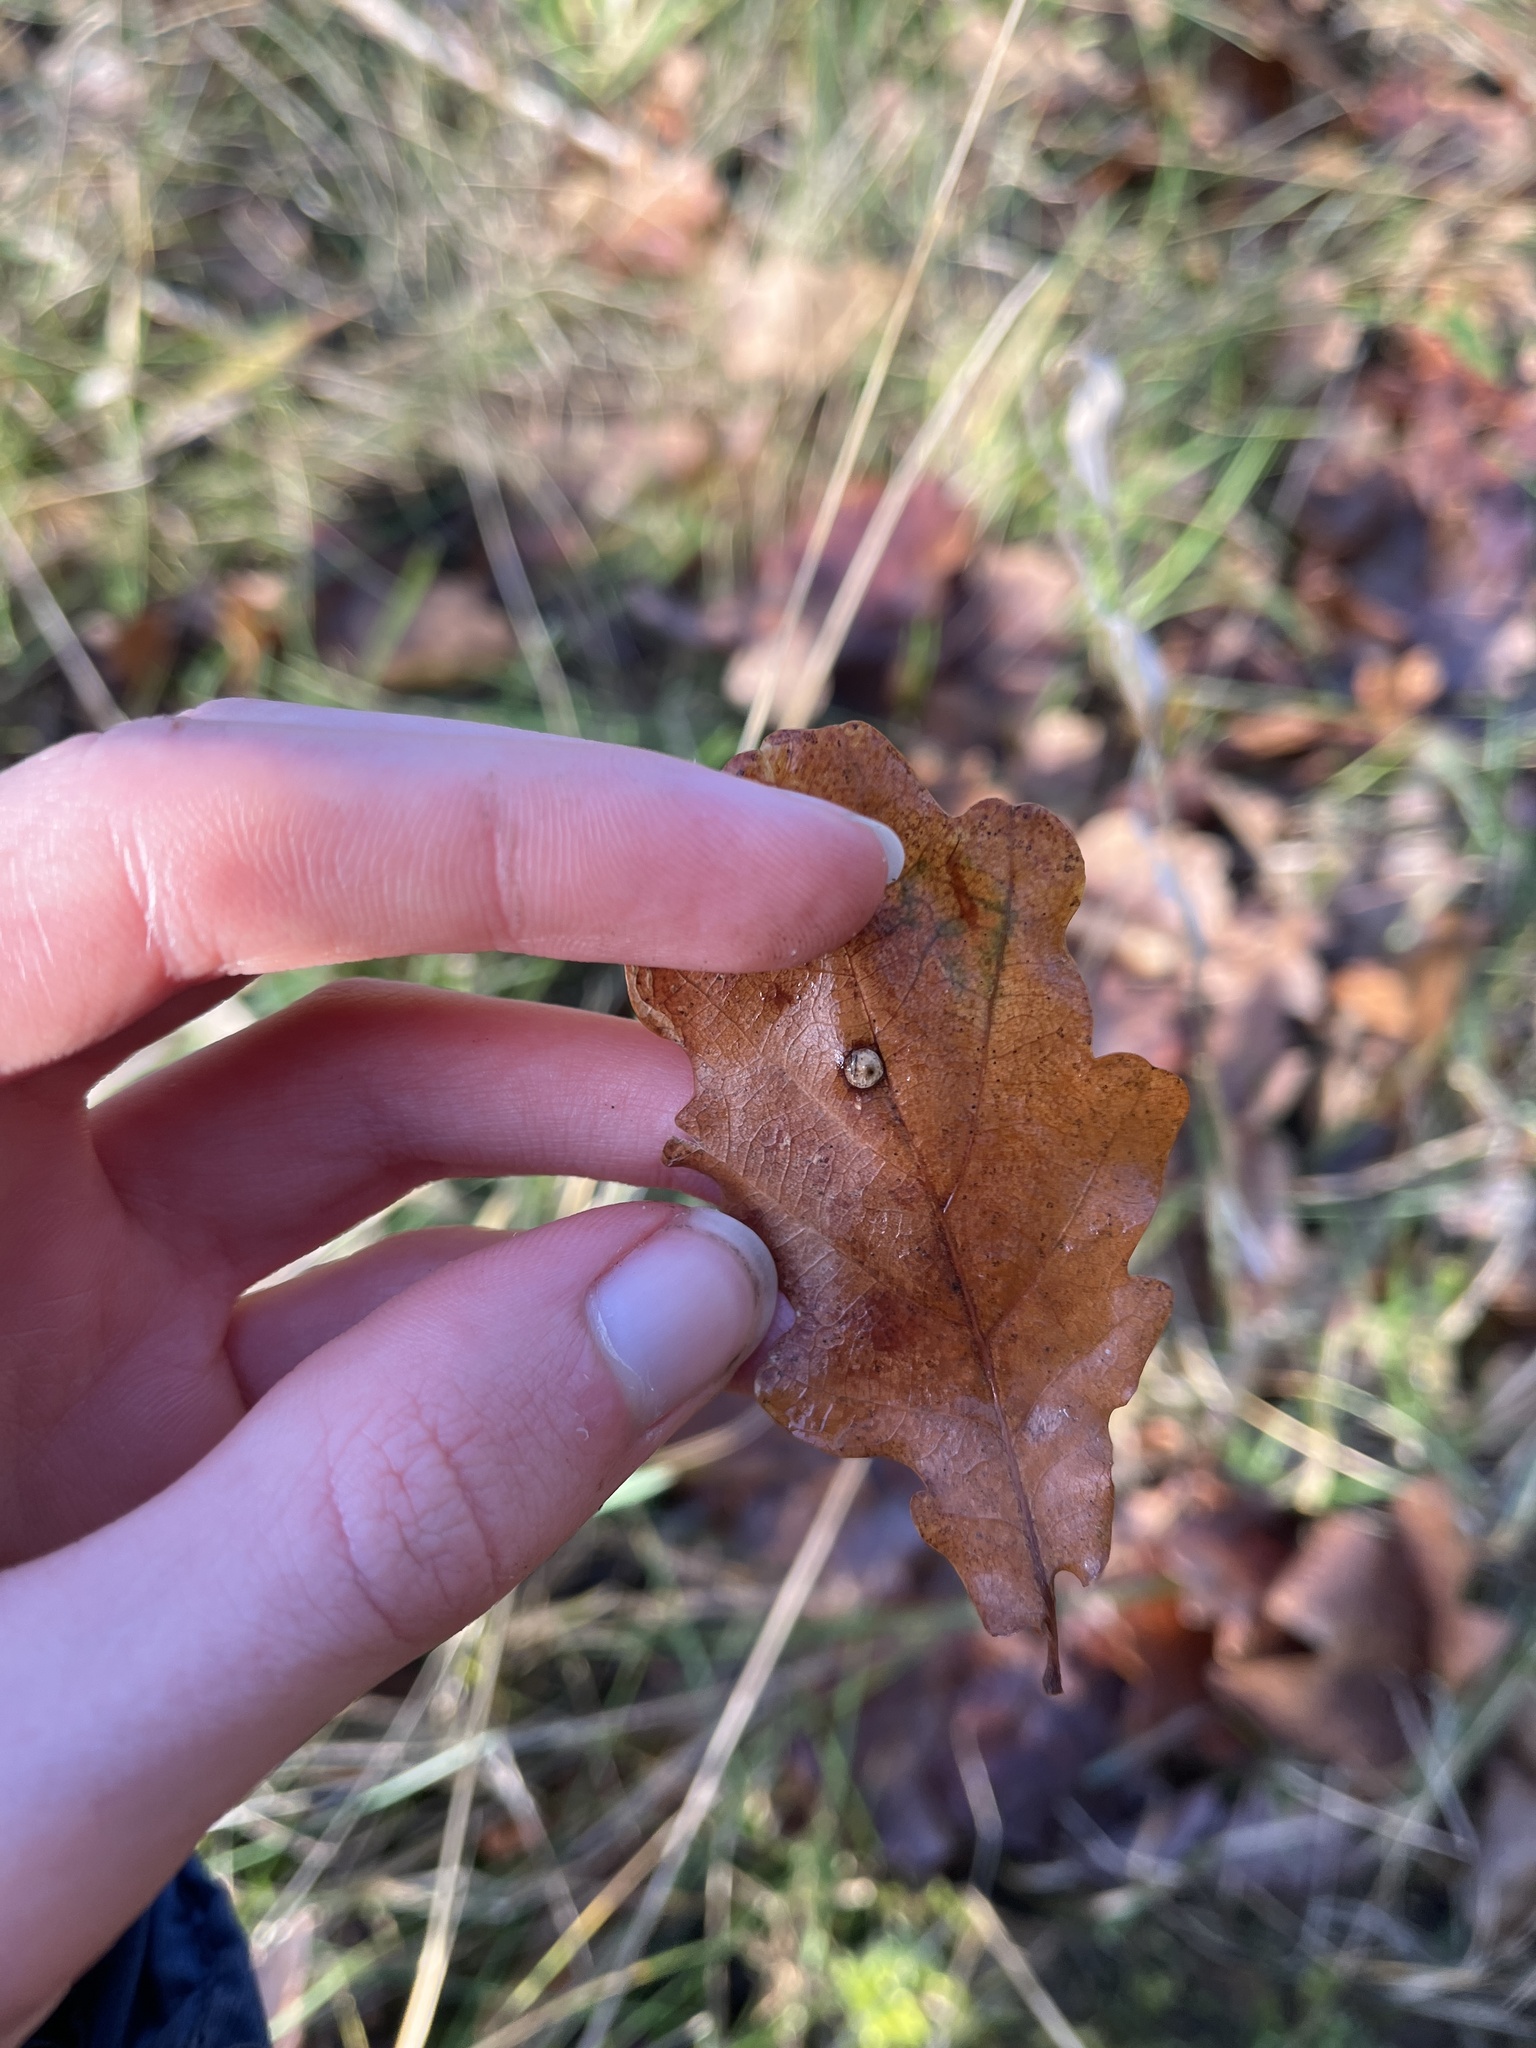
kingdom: Animalia
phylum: Arthropoda
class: Insecta
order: Hymenoptera
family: Cynipidae
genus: Neuroterus
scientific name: Neuroterus numismalis
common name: Silk-button spangle gall
